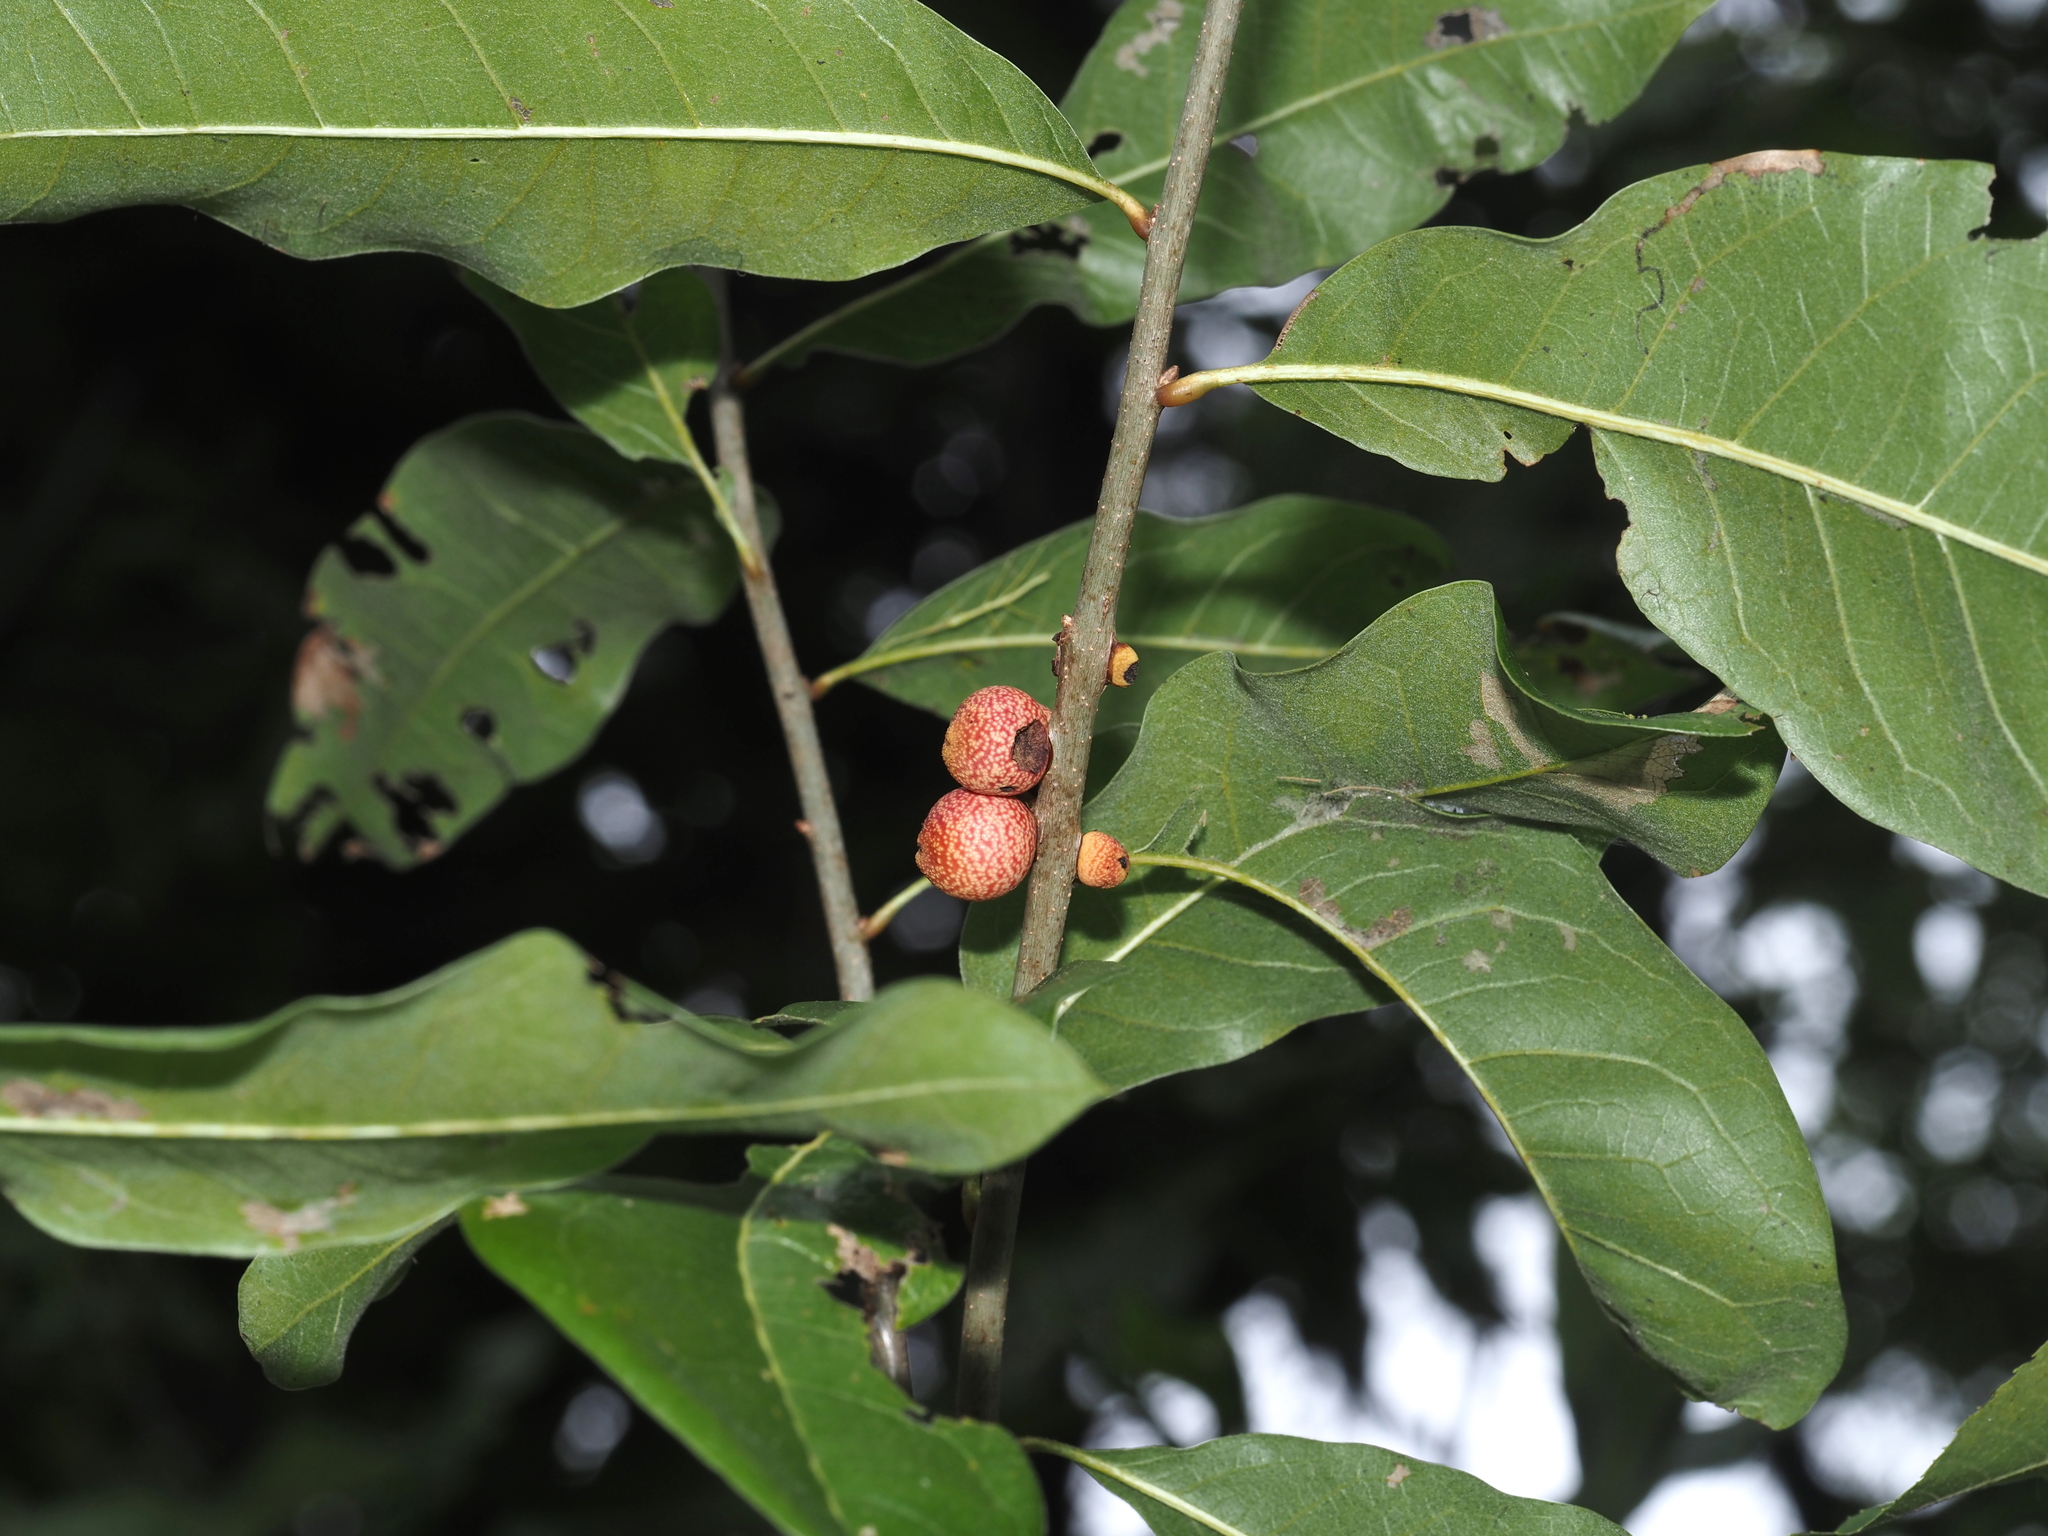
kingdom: Animalia
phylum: Arthropoda
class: Insecta
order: Hymenoptera
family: Cynipidae
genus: Kokkocynips
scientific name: Kokkocynips imbricariae
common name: Banded bullet gall wasp
